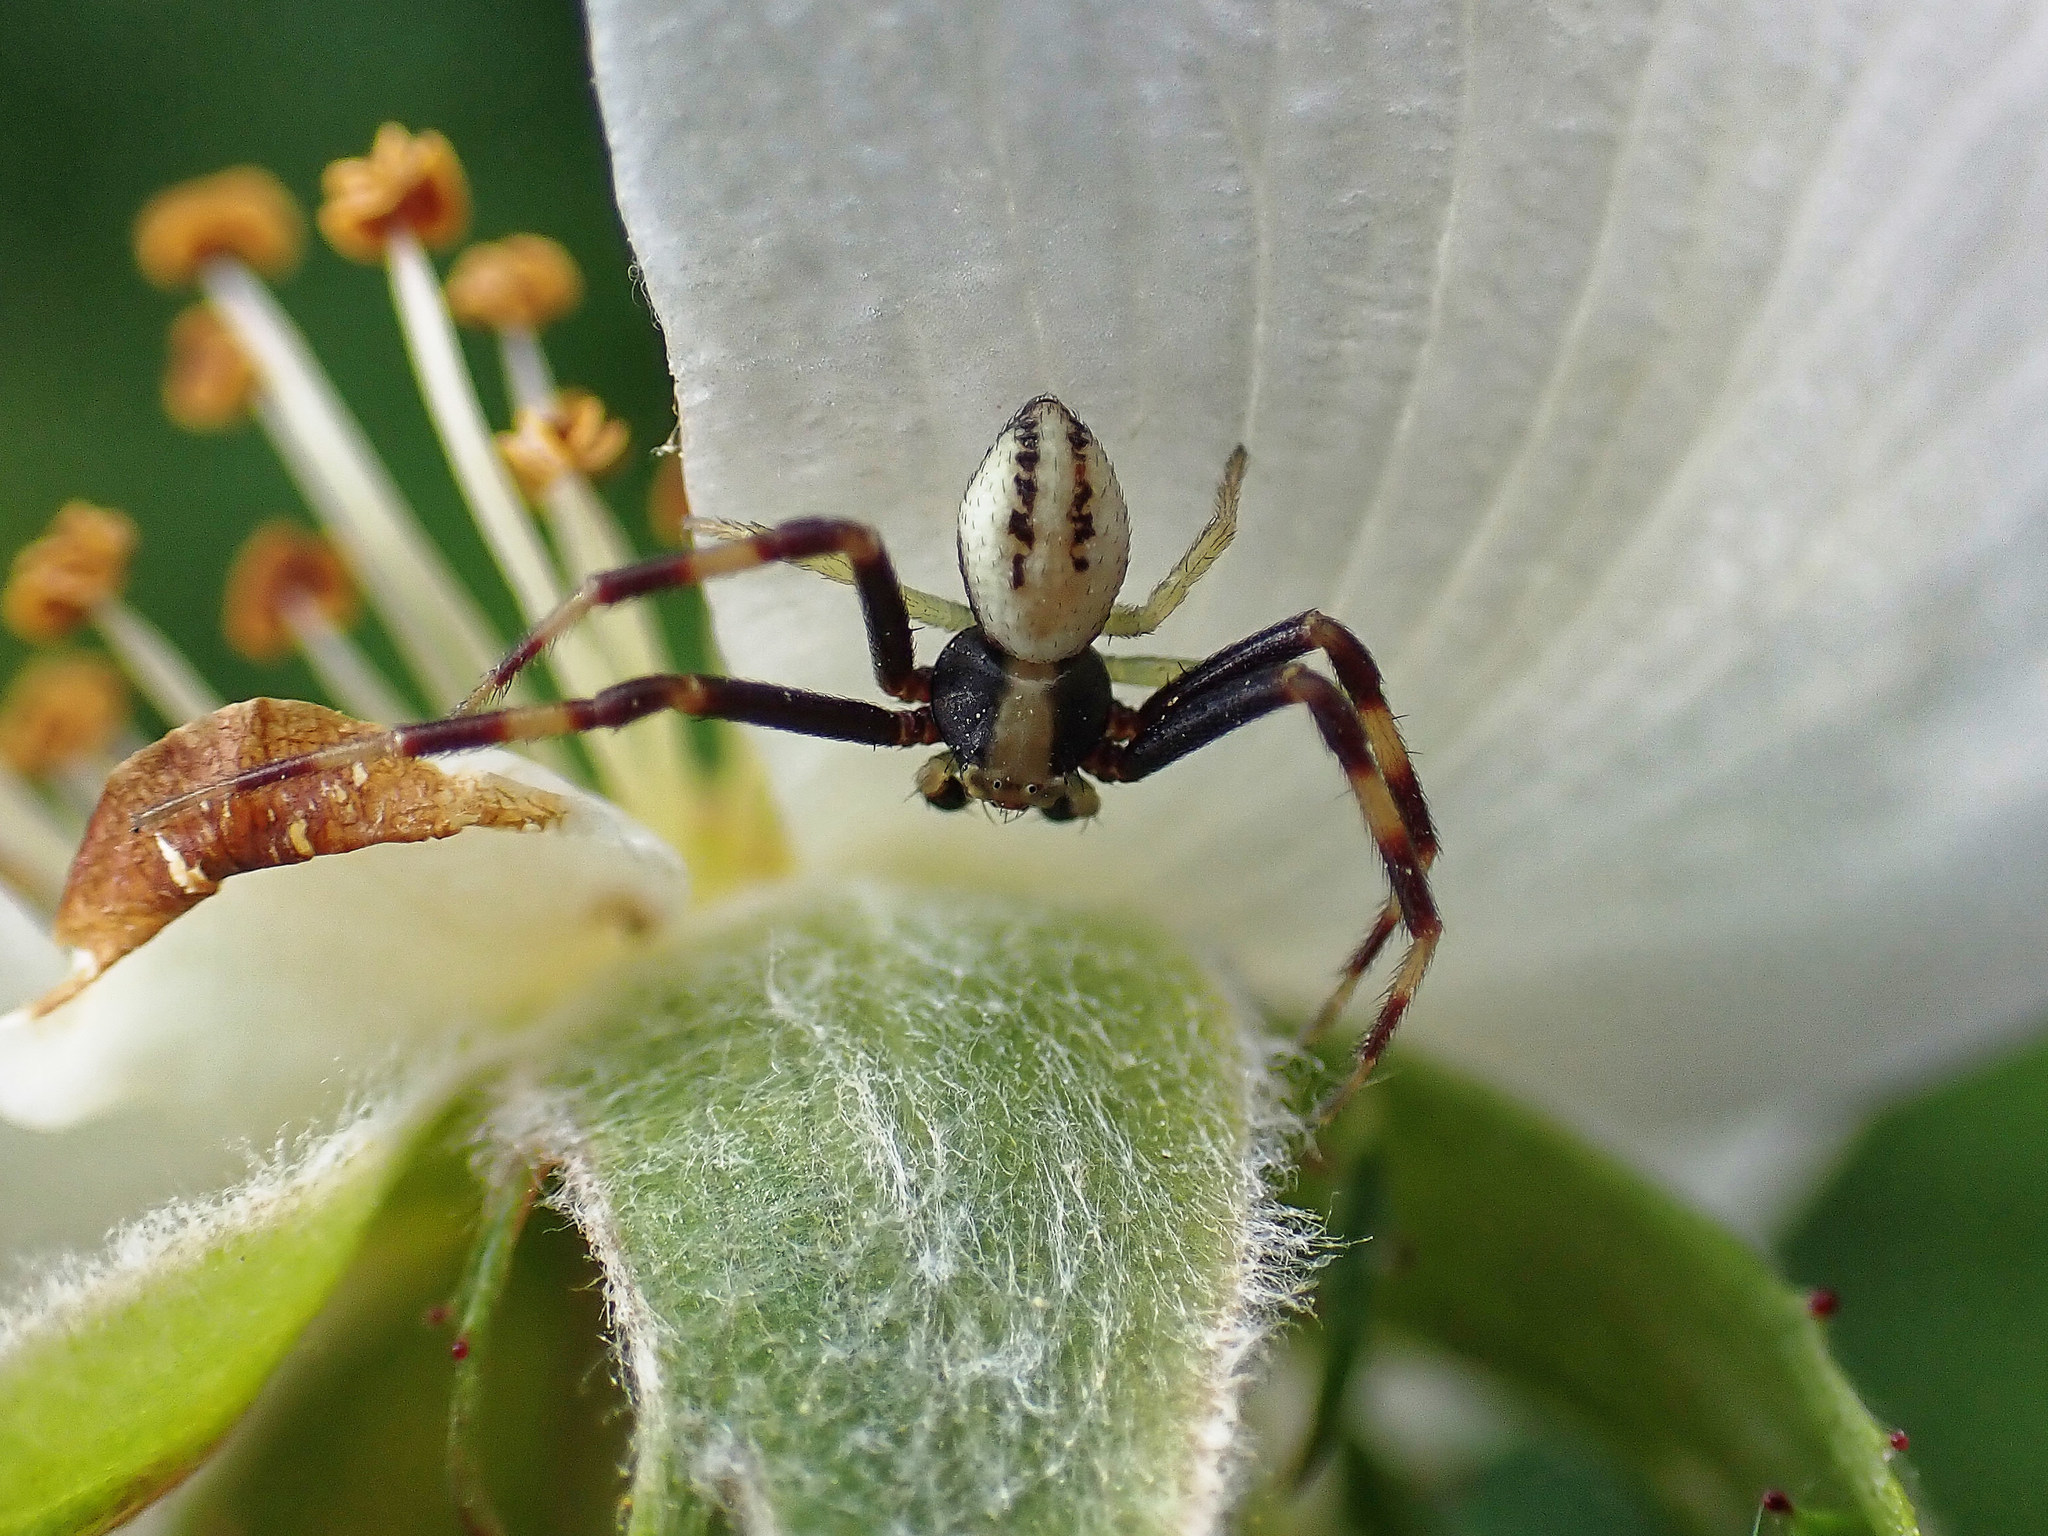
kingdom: Animalia
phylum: Arthropoda
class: Arachnida
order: Araneae
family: Thomisidae
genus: Misumena
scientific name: Misumena vatia
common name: Goldenrod crab spider
